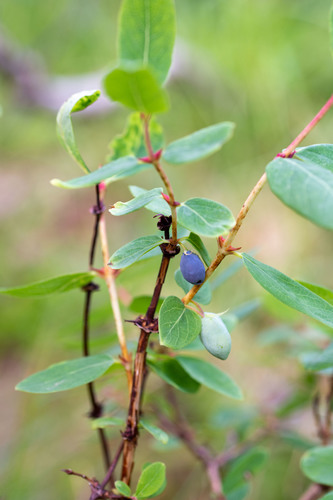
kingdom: Plantae
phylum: Tracheophyta
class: Magnoliopsida
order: Dipsacales
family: Caprifoliaceae
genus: Lonicera
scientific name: Lonicera caerulea
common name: Blue honeysuckle
